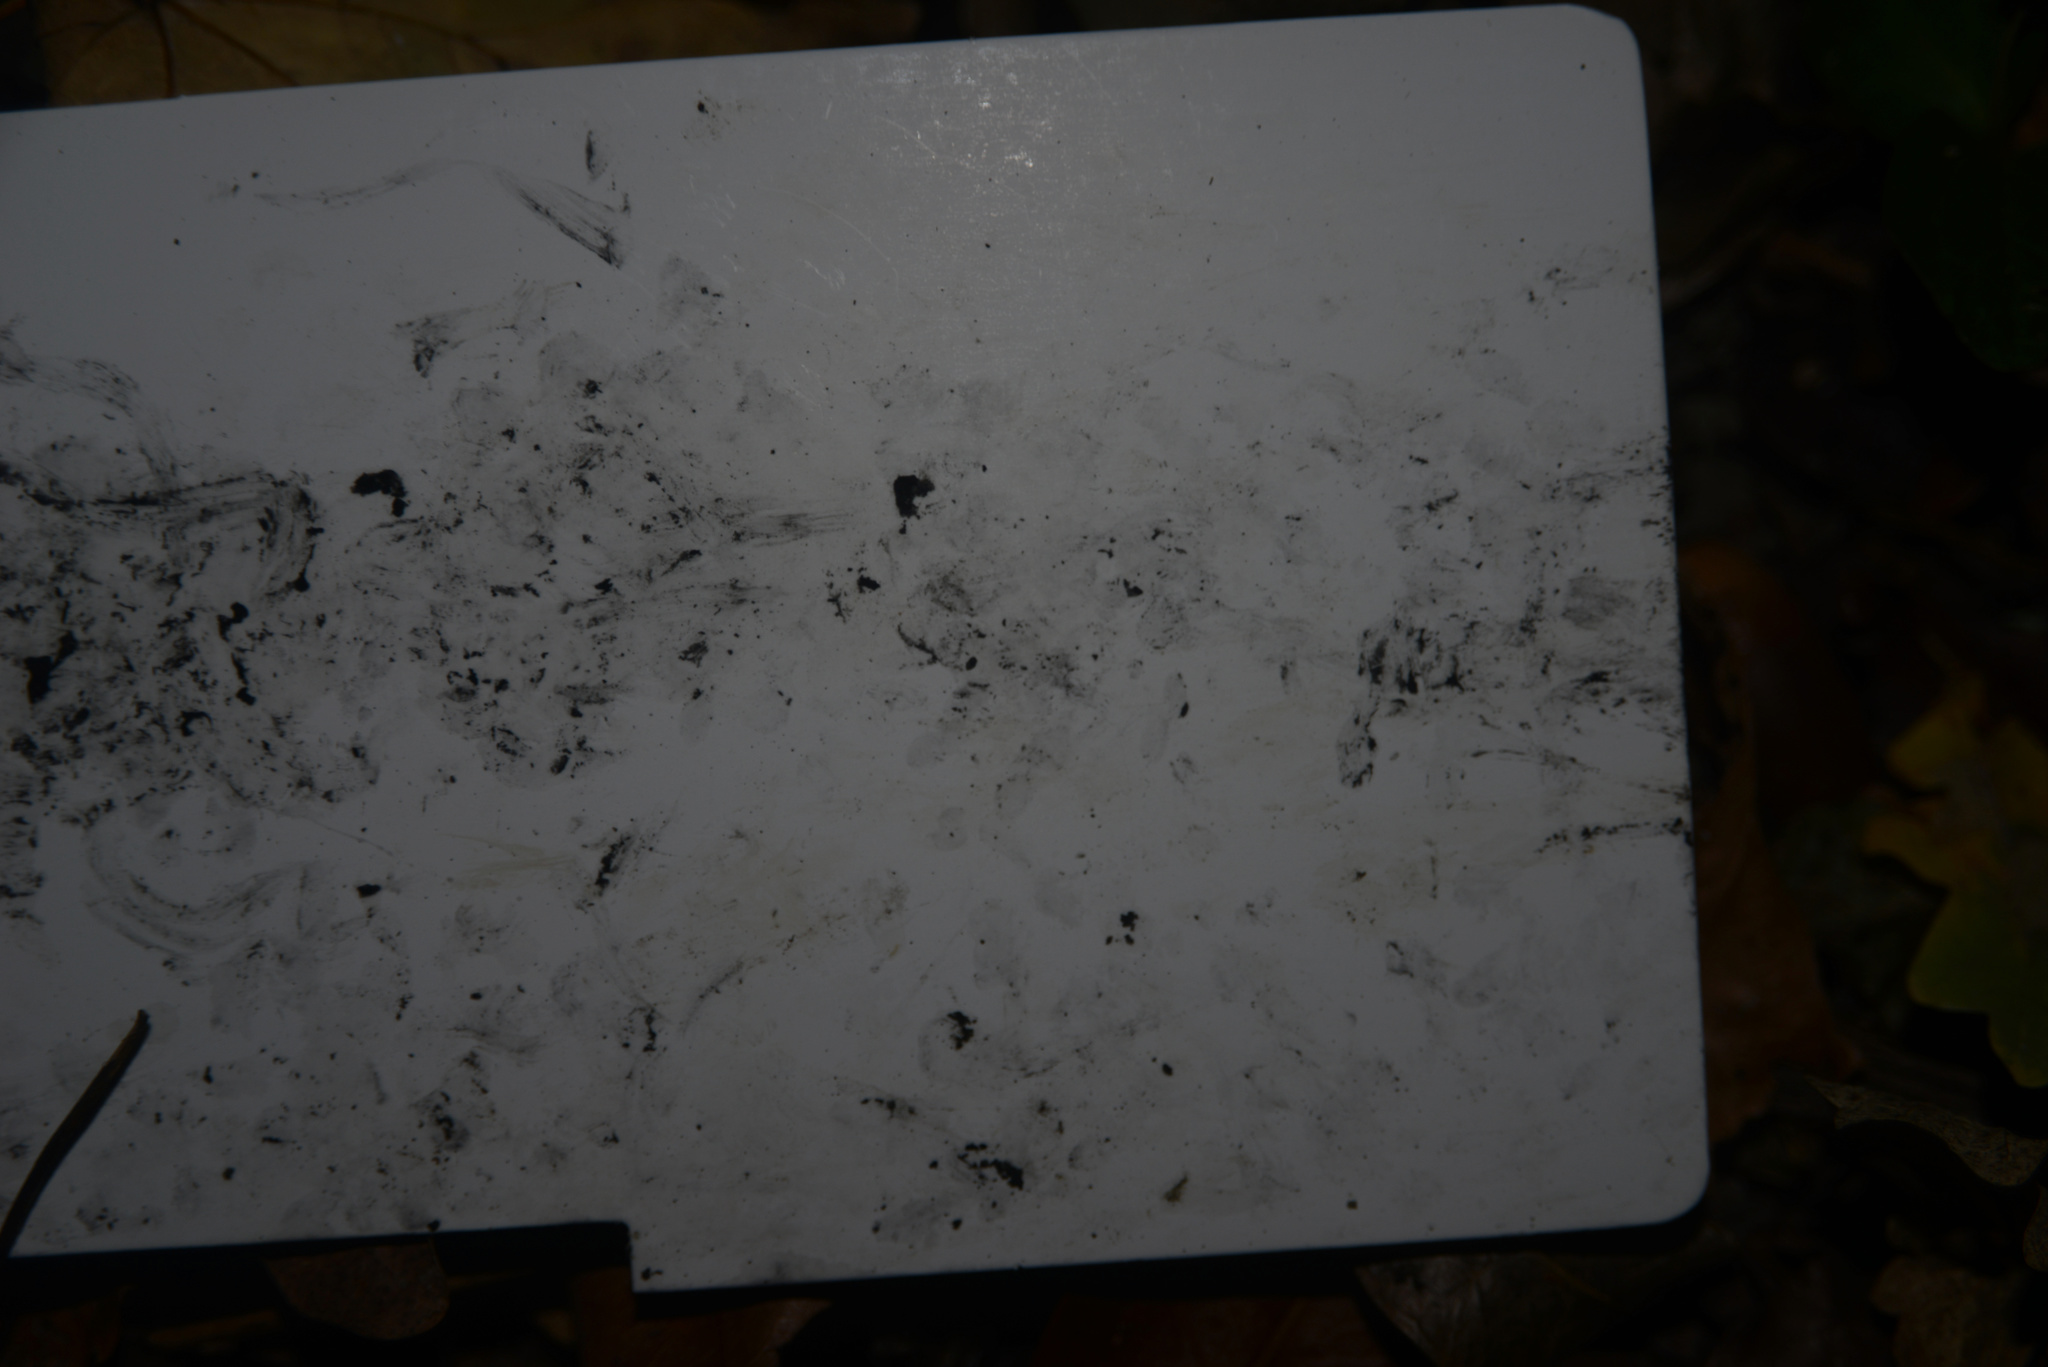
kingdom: Animalia
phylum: Chordata
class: Mammalia
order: Erinaceomorpha
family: Erinaceidae
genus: Erinaceus
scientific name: Erinaceus europaeus
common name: West european hedgehog
